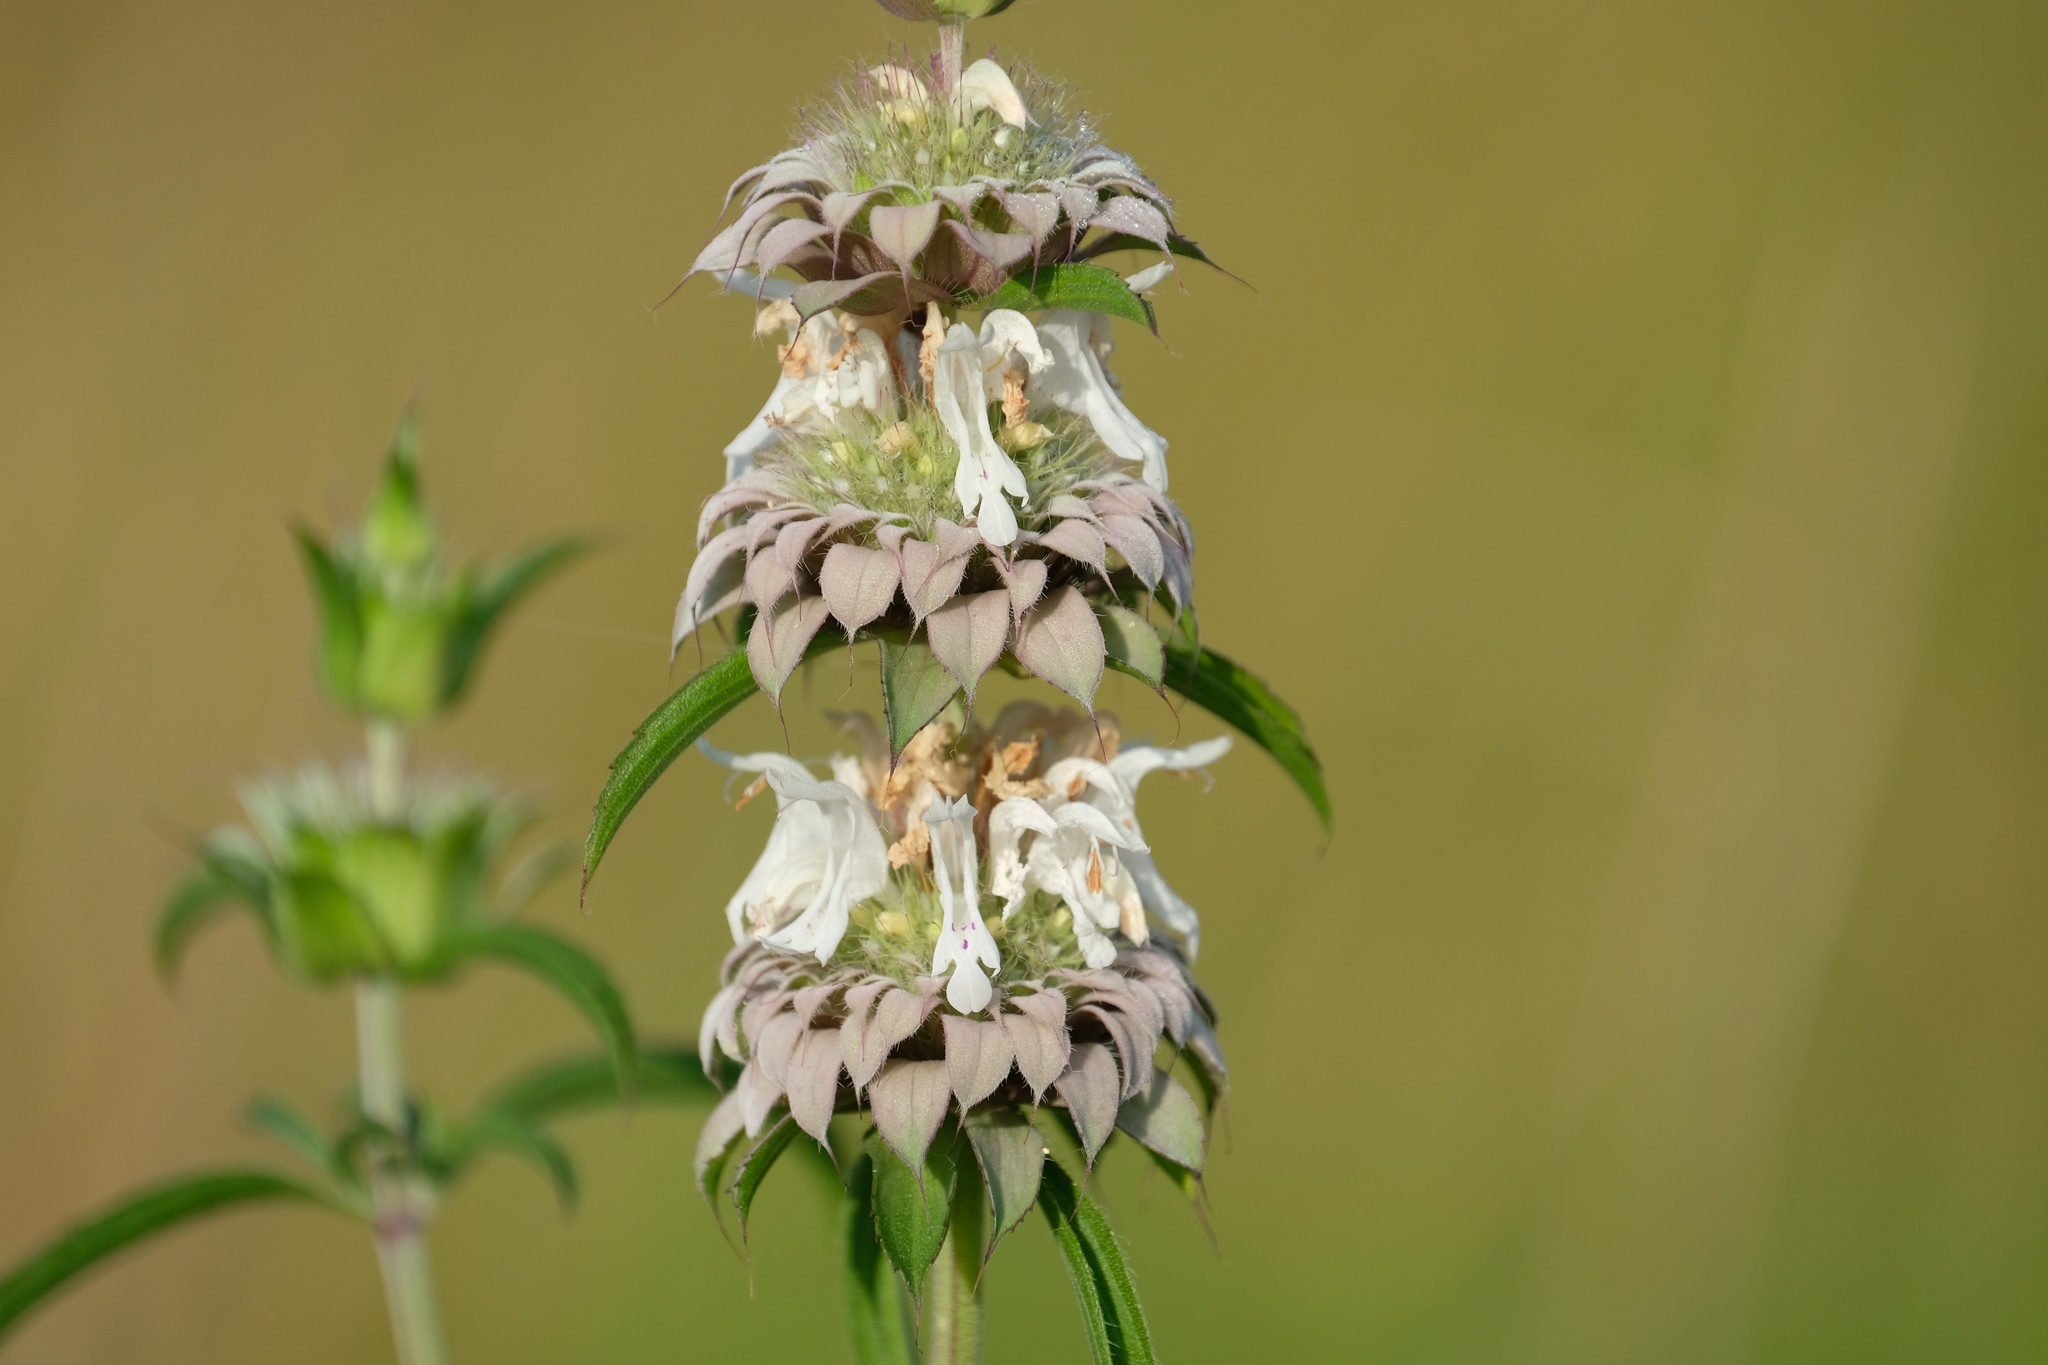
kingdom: Plantae
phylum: Tracheophyta
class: Magnoliopsida
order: Lamiales
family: Lamiaceae
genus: Monarda
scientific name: Monarda citriodora
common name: Lemon beebalm
